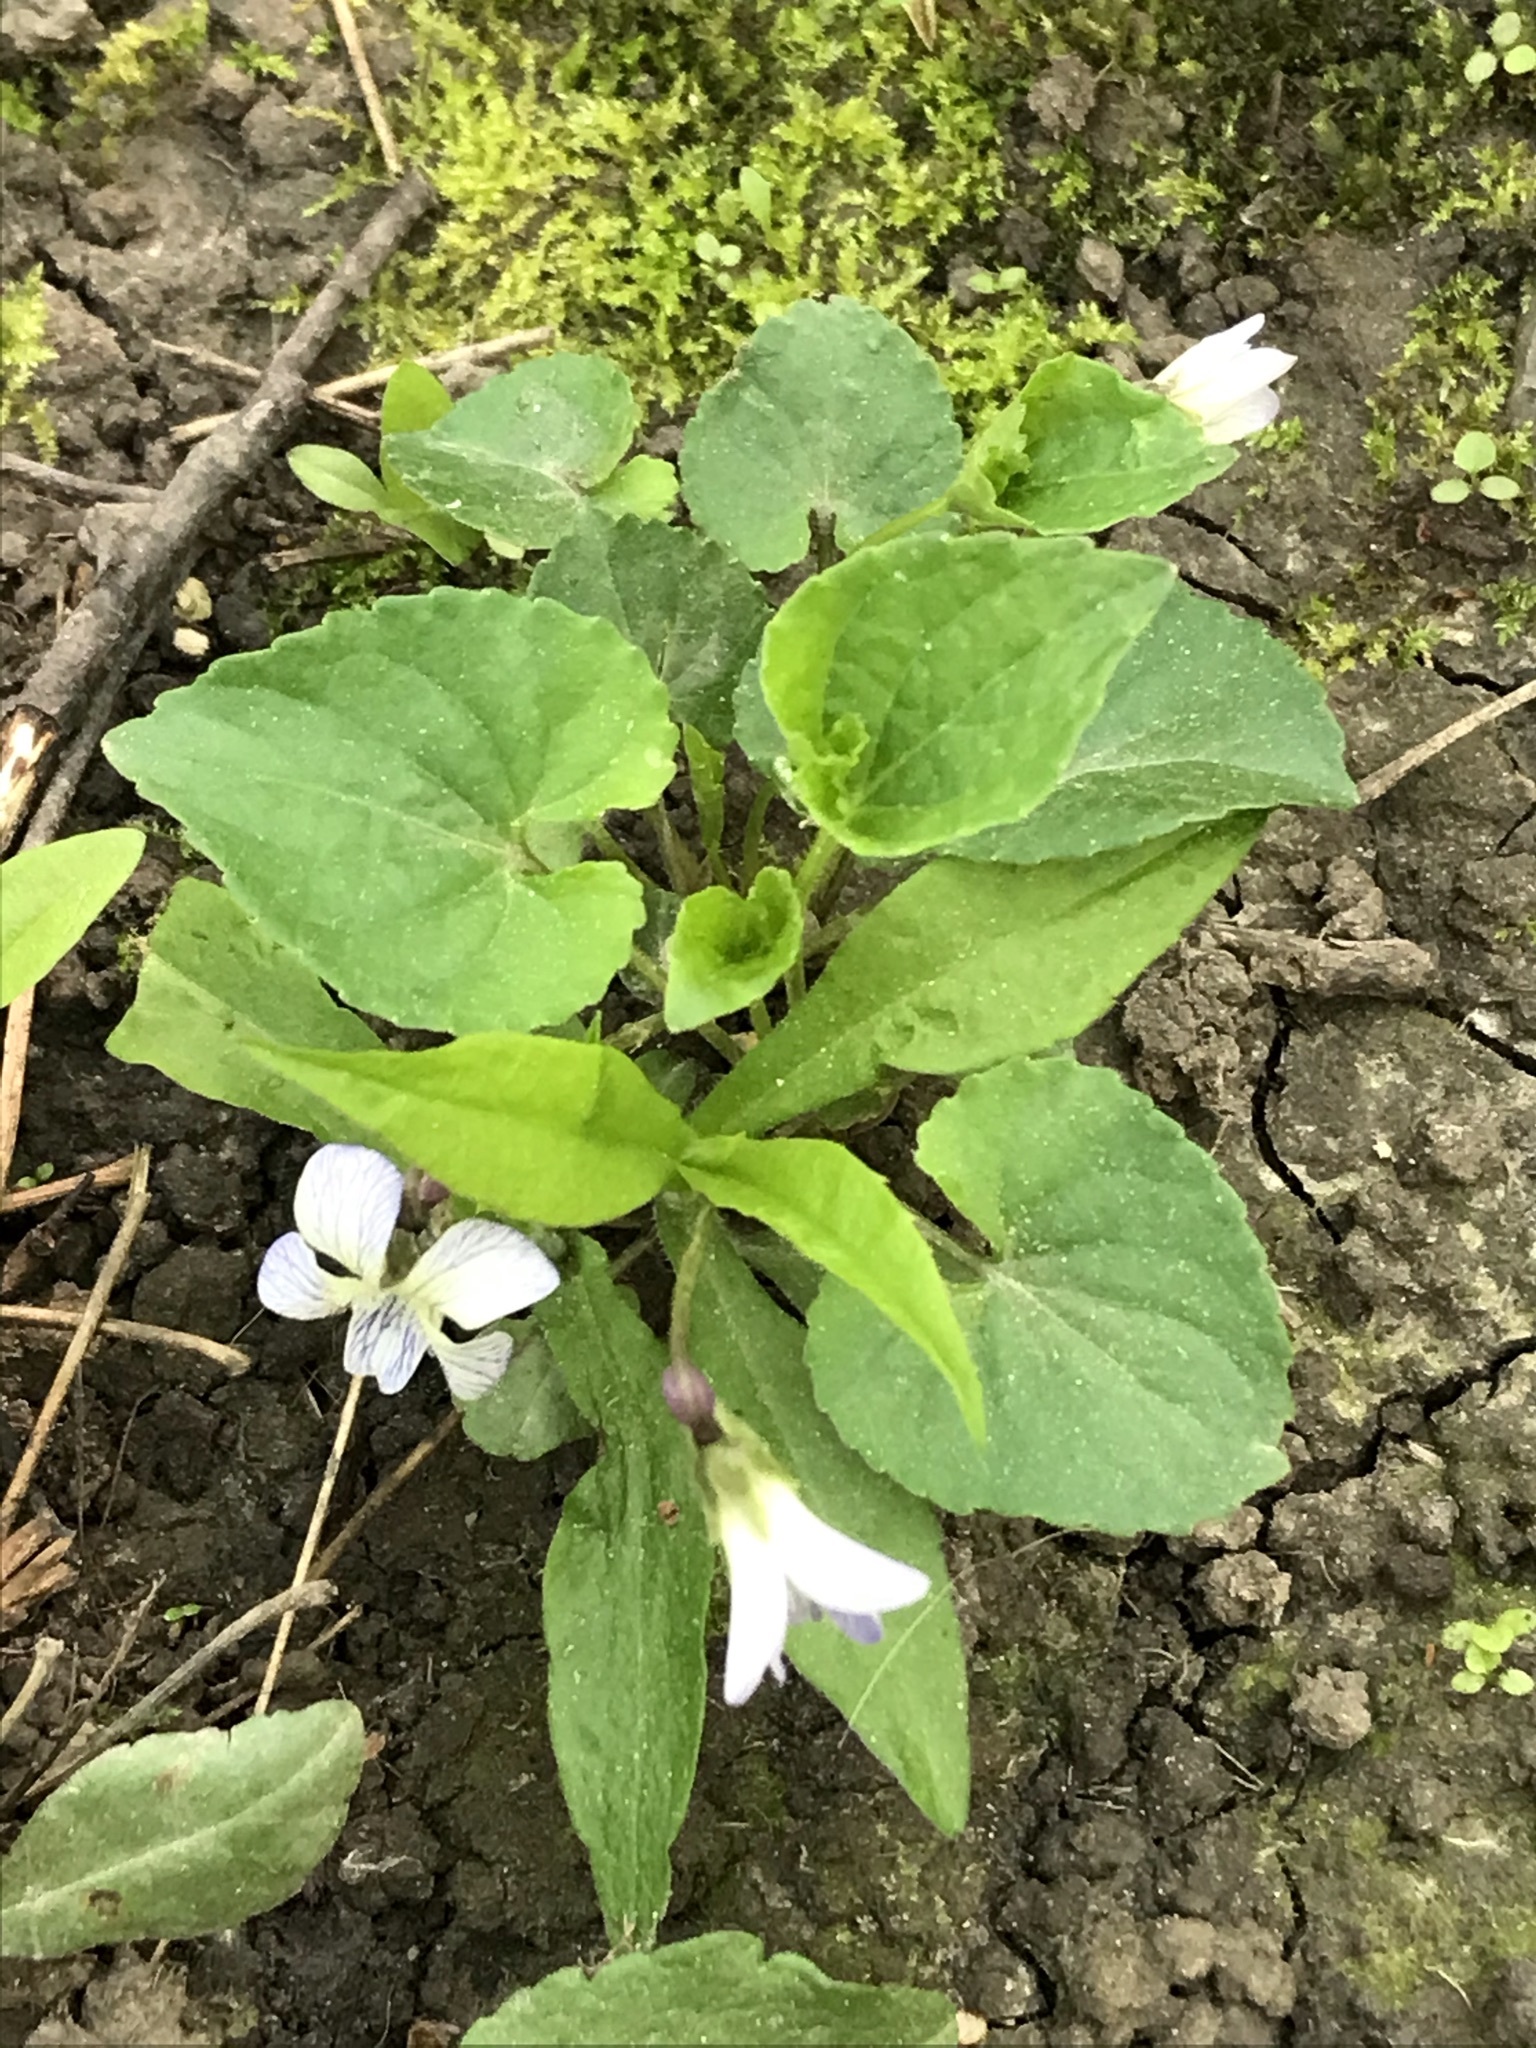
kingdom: Plantae
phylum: Tracheophyta
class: Magnoliopsida
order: Malpighiales
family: Violaceae
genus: Viola
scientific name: Viola sororia
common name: Dooryard violet
